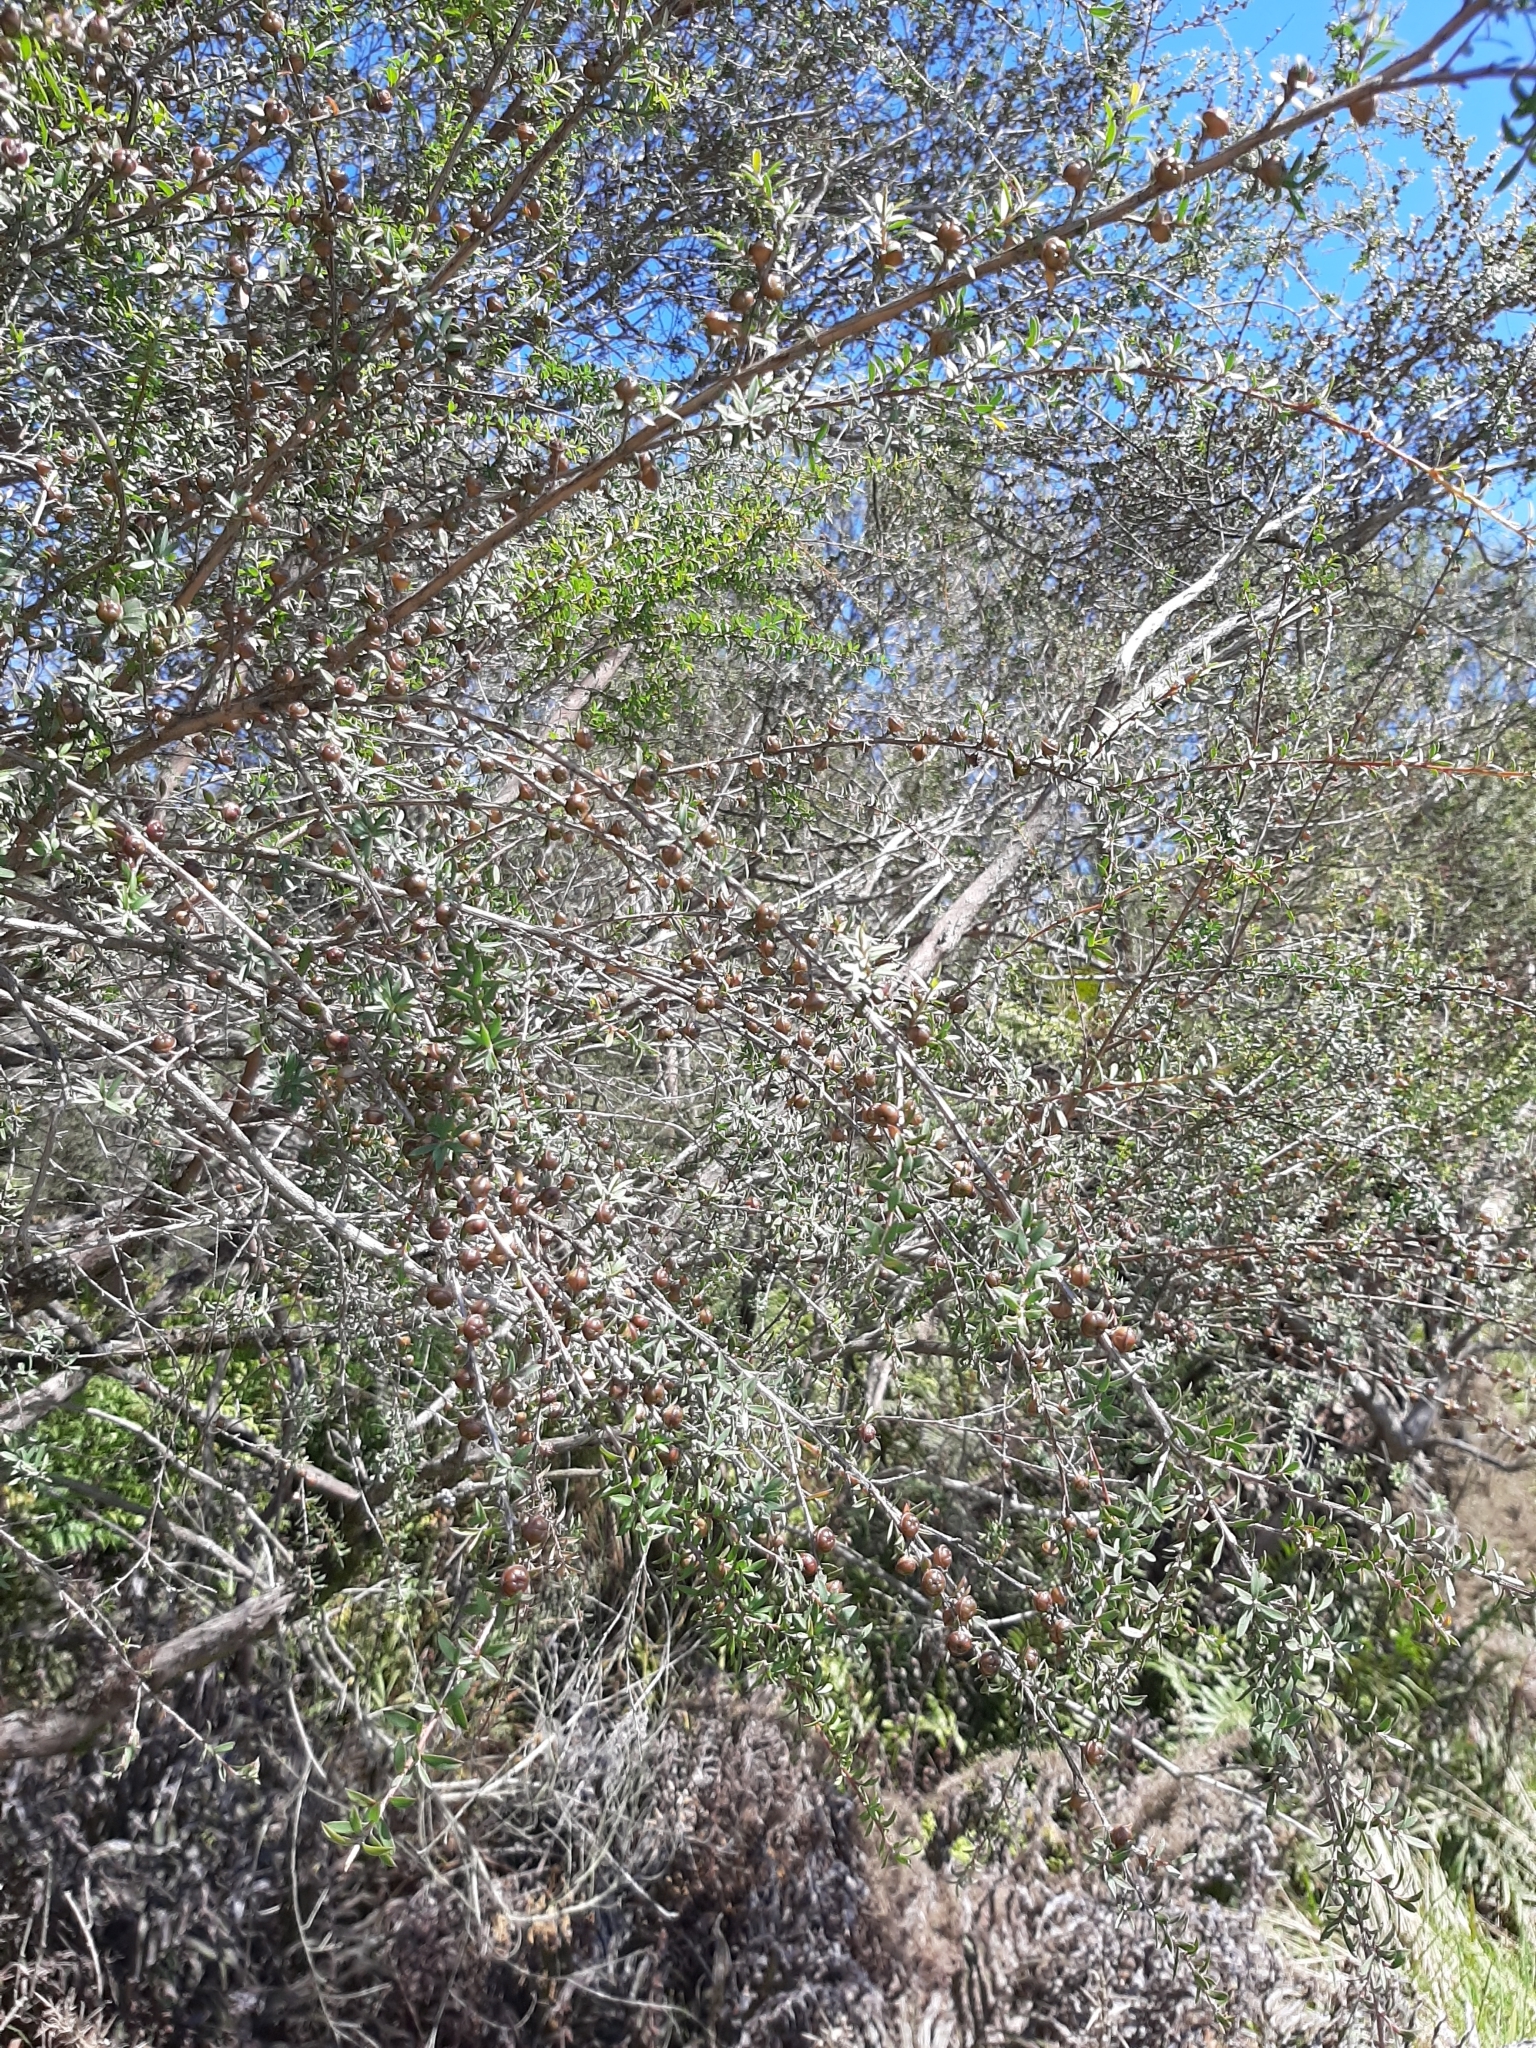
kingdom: Plantae
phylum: Tracheophyta
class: Magnoliopsida
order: Myrtales
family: Myrtaceae
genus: Leptospermum
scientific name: Leptospermum scoparium
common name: Broom tea-tree
